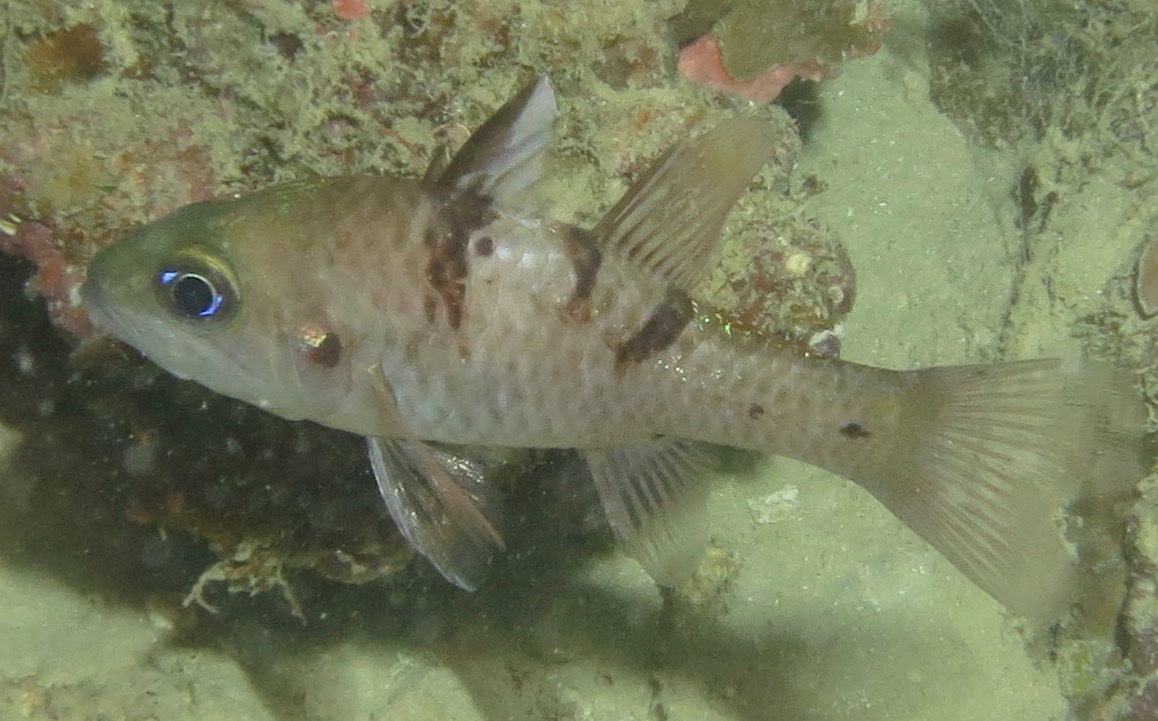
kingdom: Animalia
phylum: Chordata
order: Perciformes
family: Apogonidae
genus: Pristicon
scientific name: Pristicon trimaculatus
